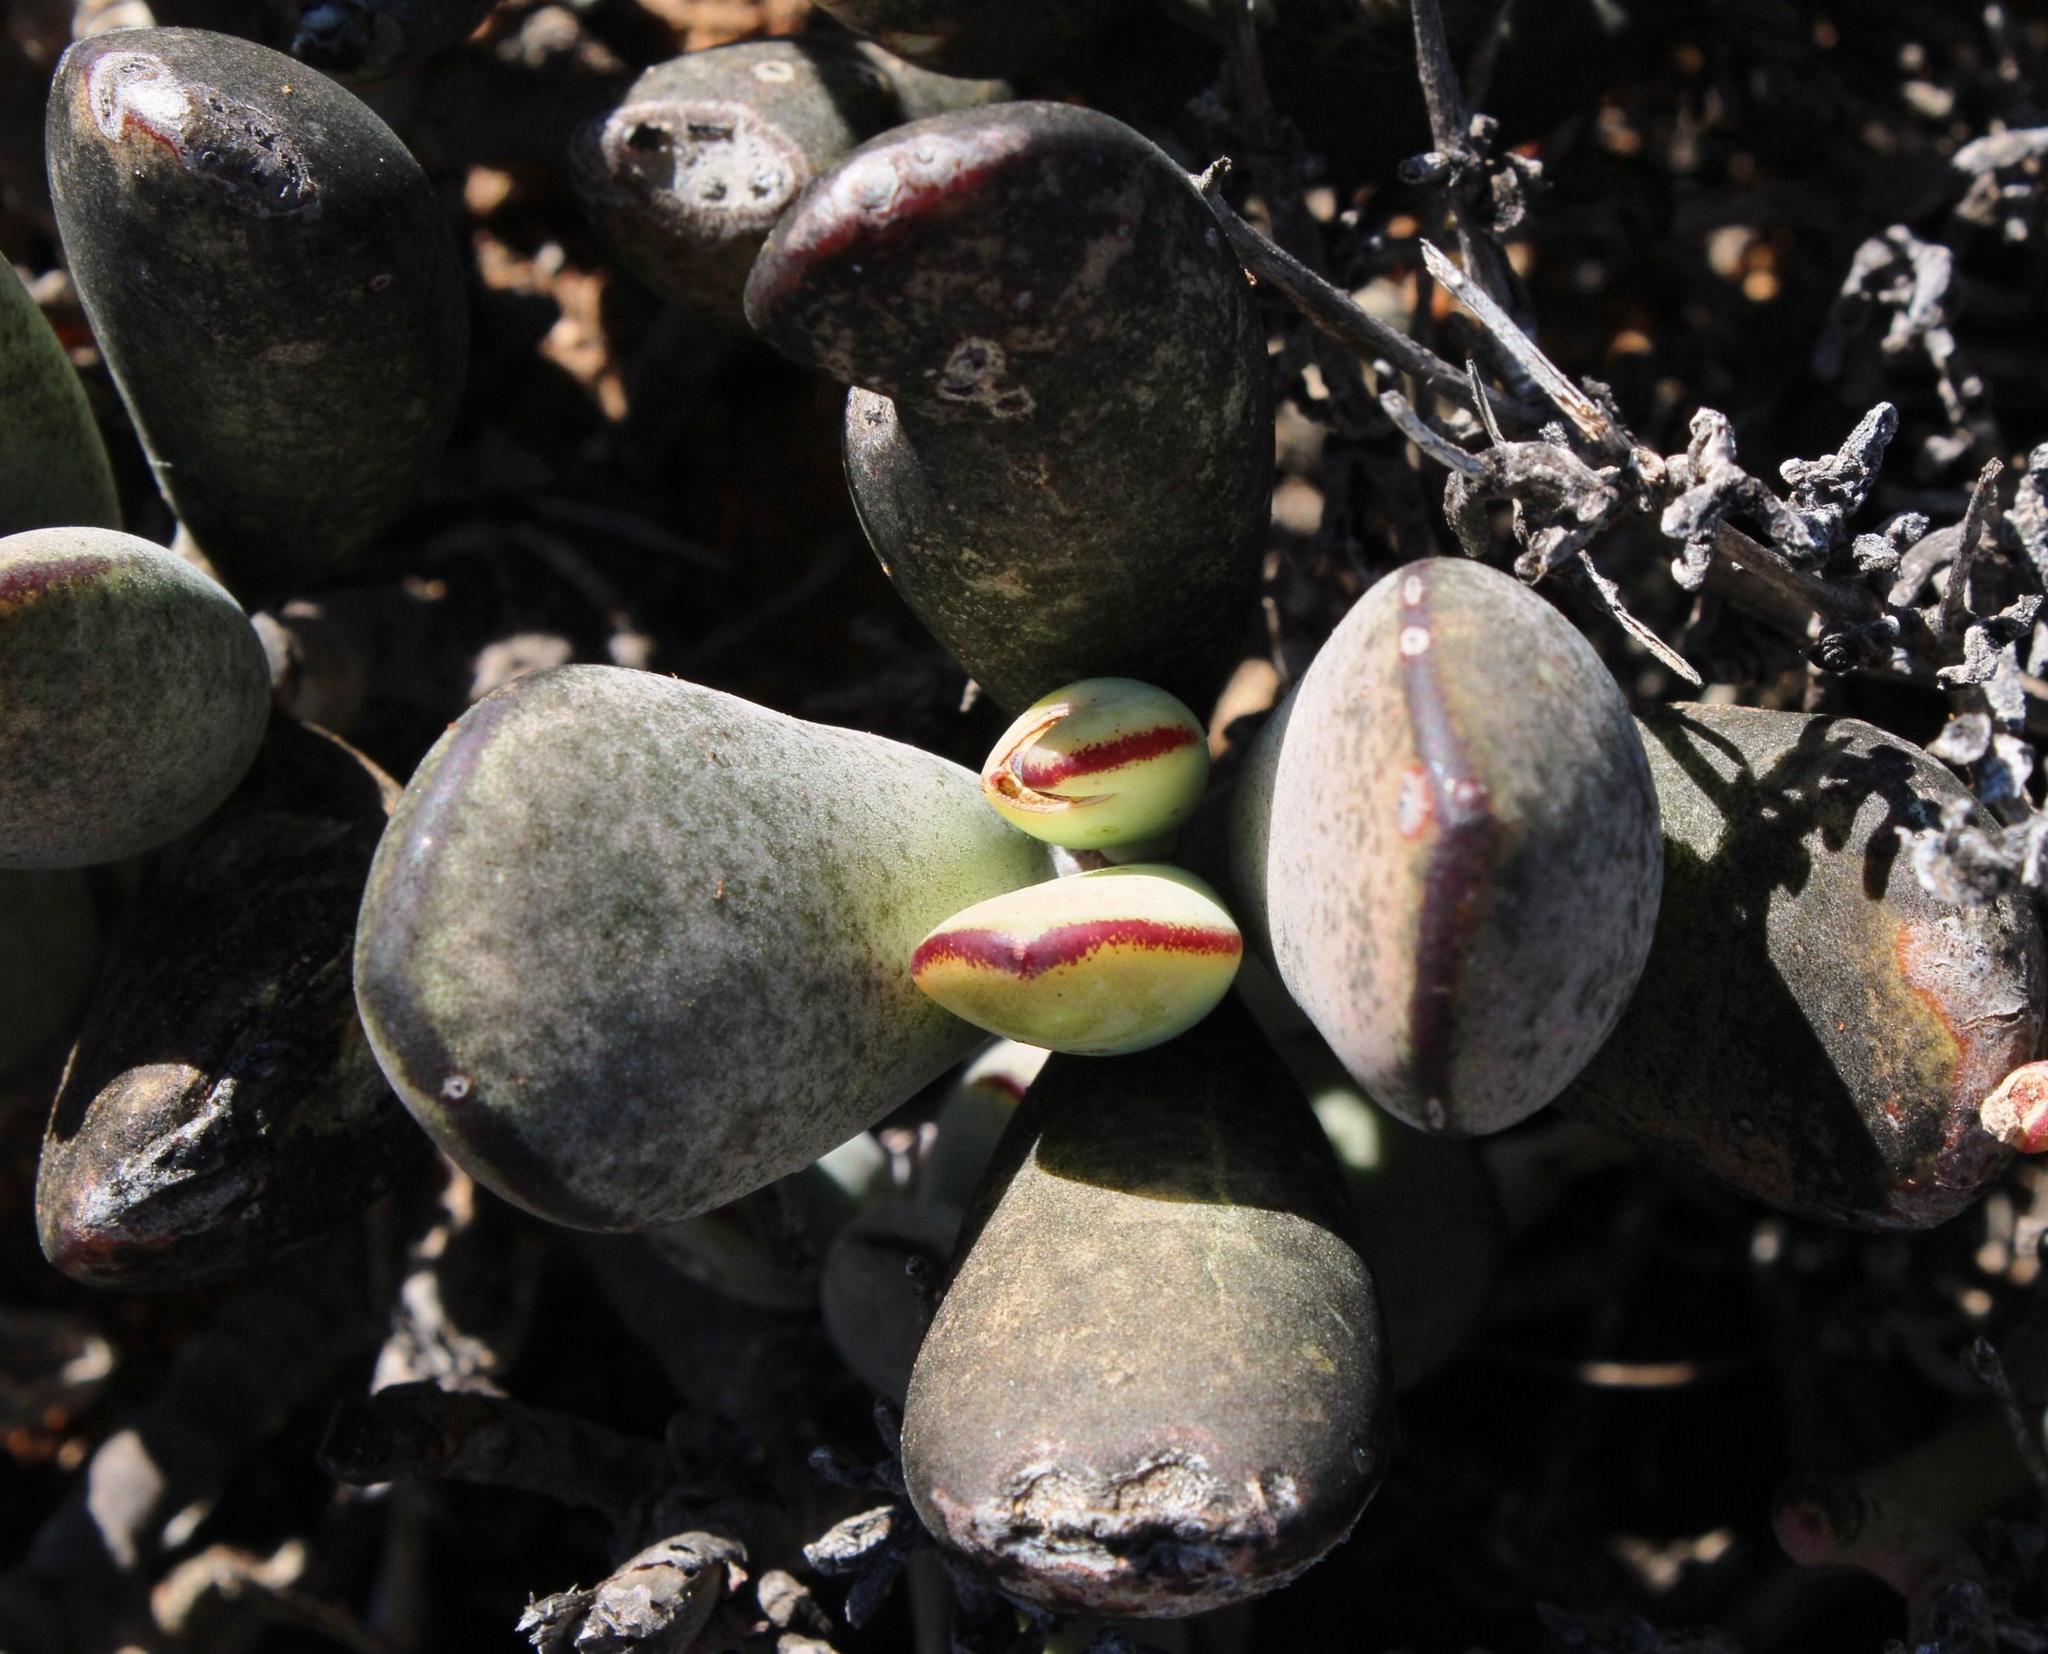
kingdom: Plantae
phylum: Tracheophyta
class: Magnoliopsida
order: Saxifragales
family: Crassulaceae
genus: Cotyledon
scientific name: Cotyledon orbiculata
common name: Pig's ear
